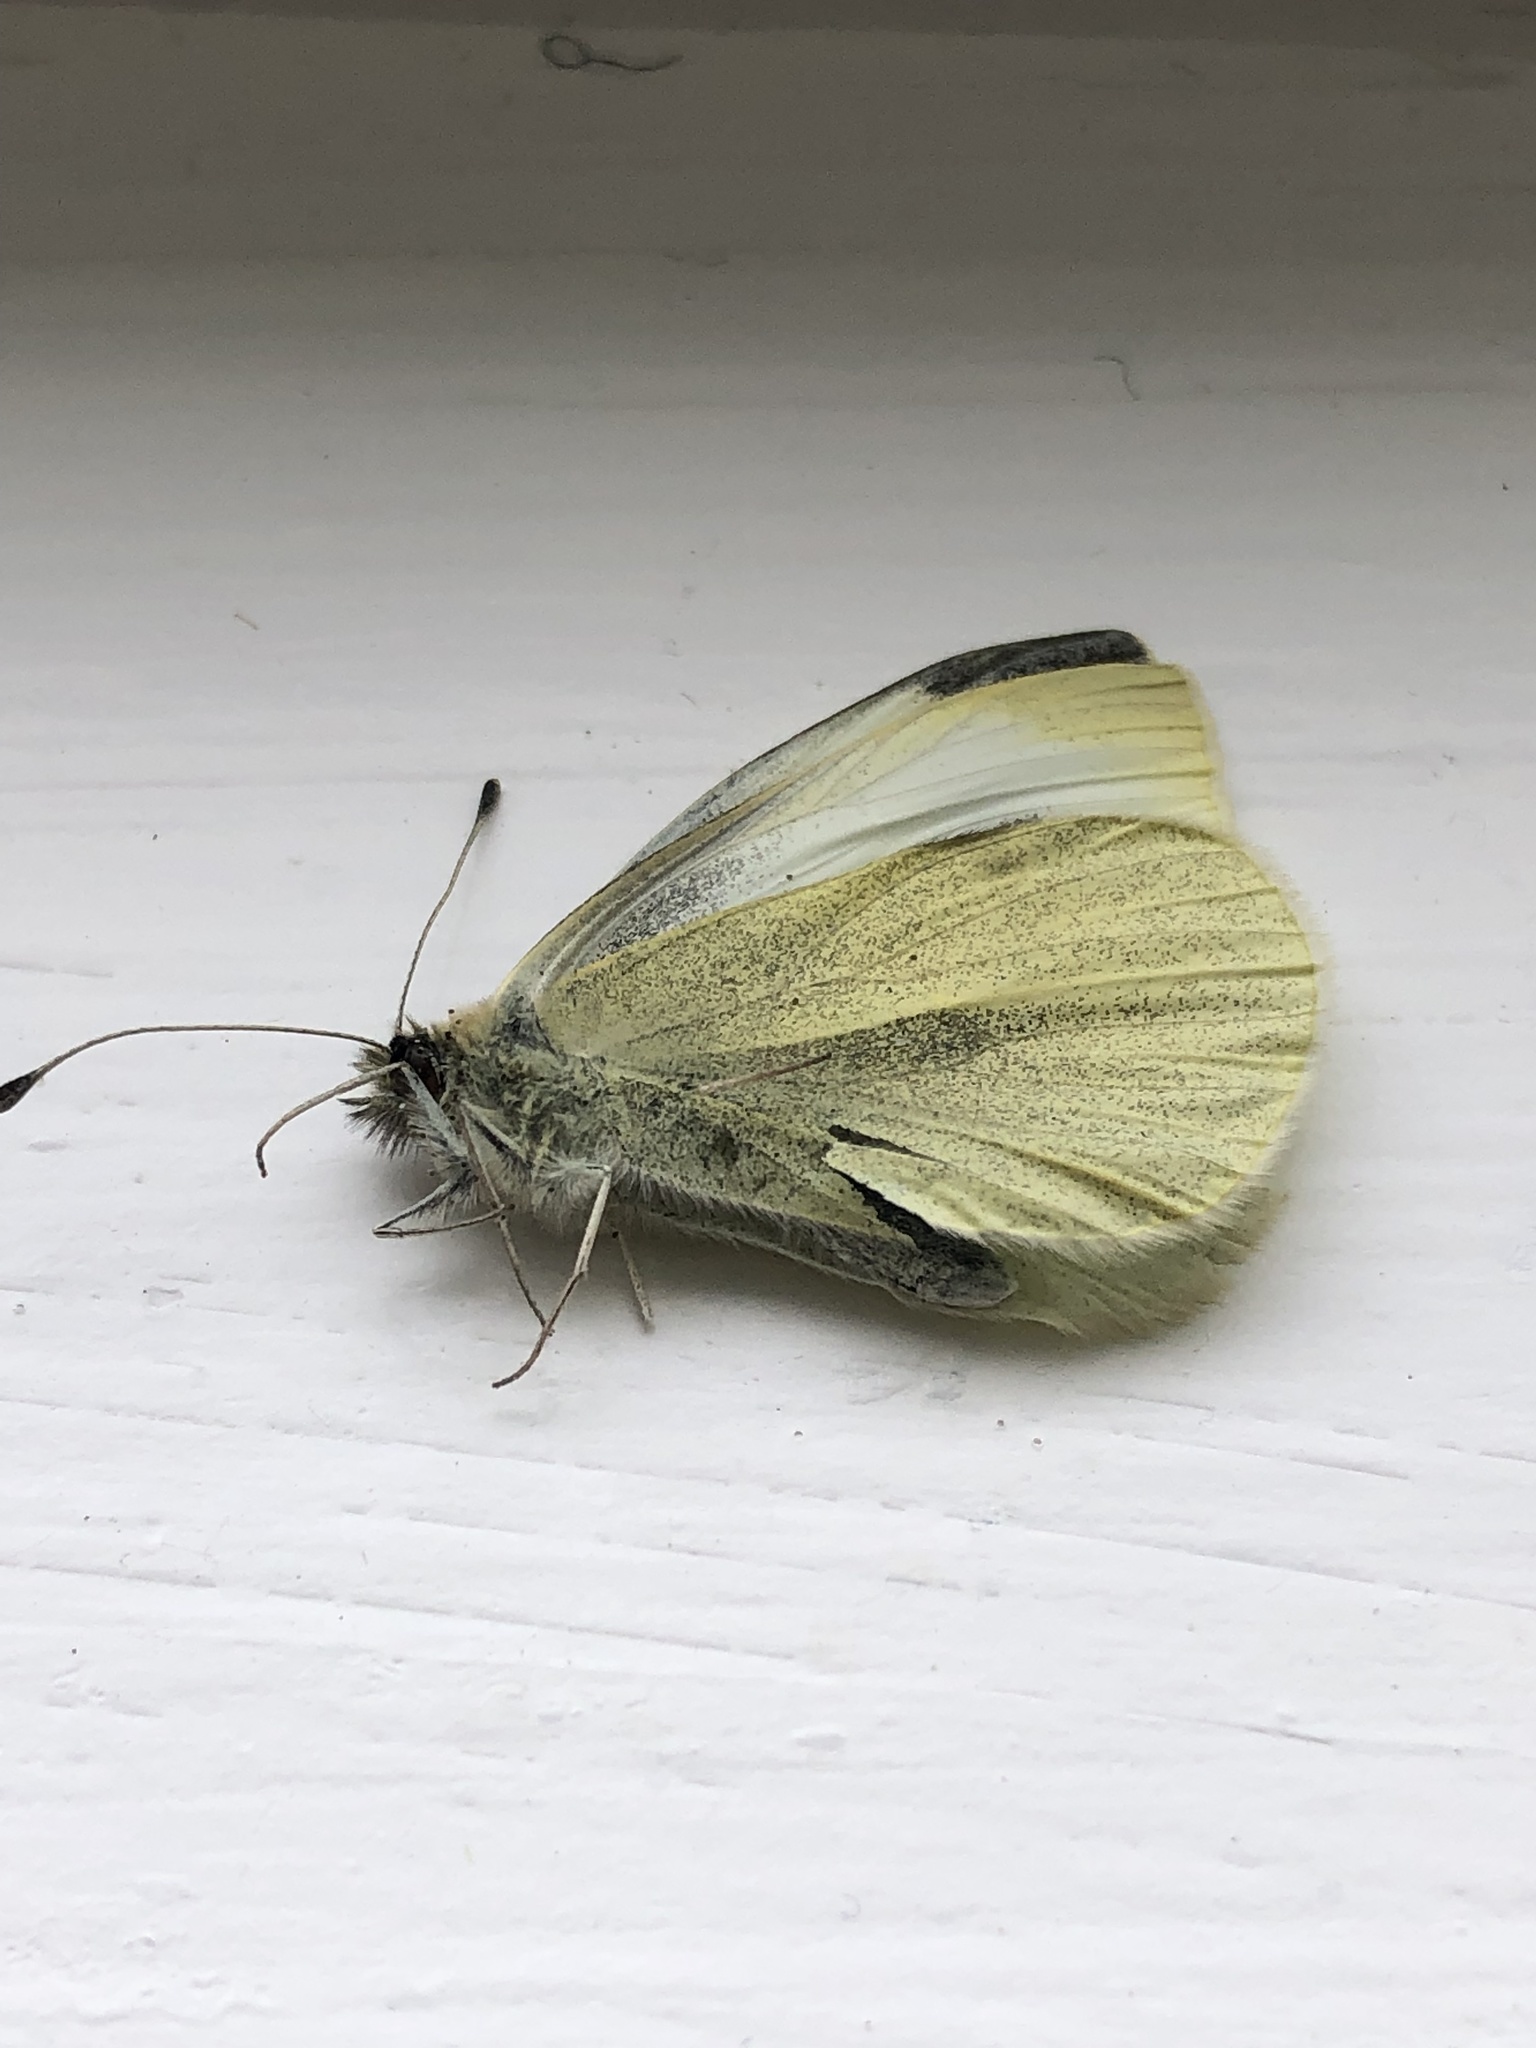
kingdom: Animalia
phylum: Arthropoda
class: Insecta
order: Lepidoptera
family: Pieridae
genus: Pieris
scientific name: Pieris rapae
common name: Small white
